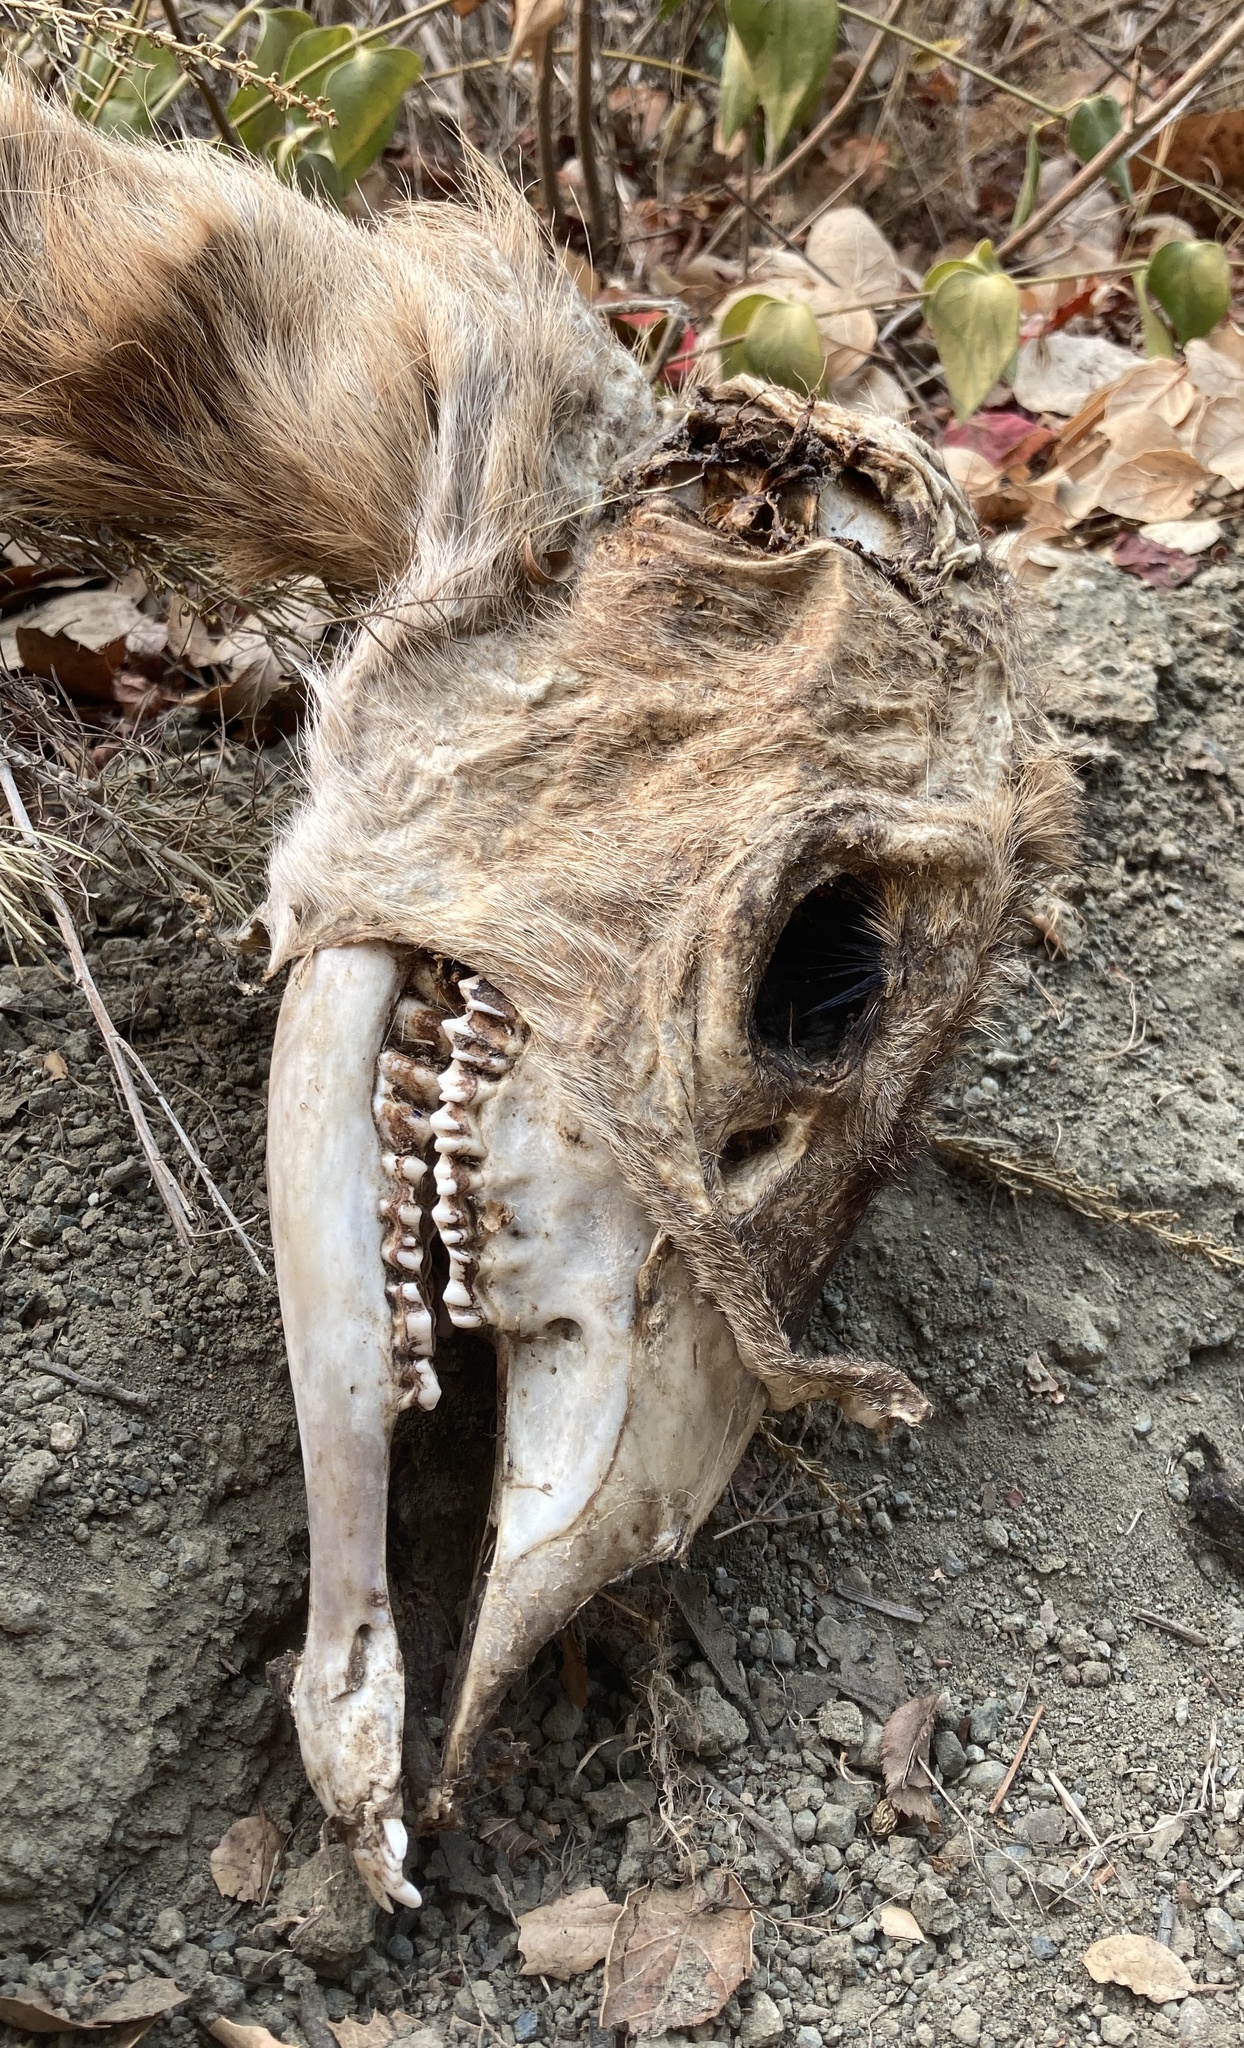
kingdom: Animalia
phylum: Chordata
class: Mammalia
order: Artiodactyla
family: Cervidae
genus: Odocoileus
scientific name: Odocoileus hemionus
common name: Mule deer
